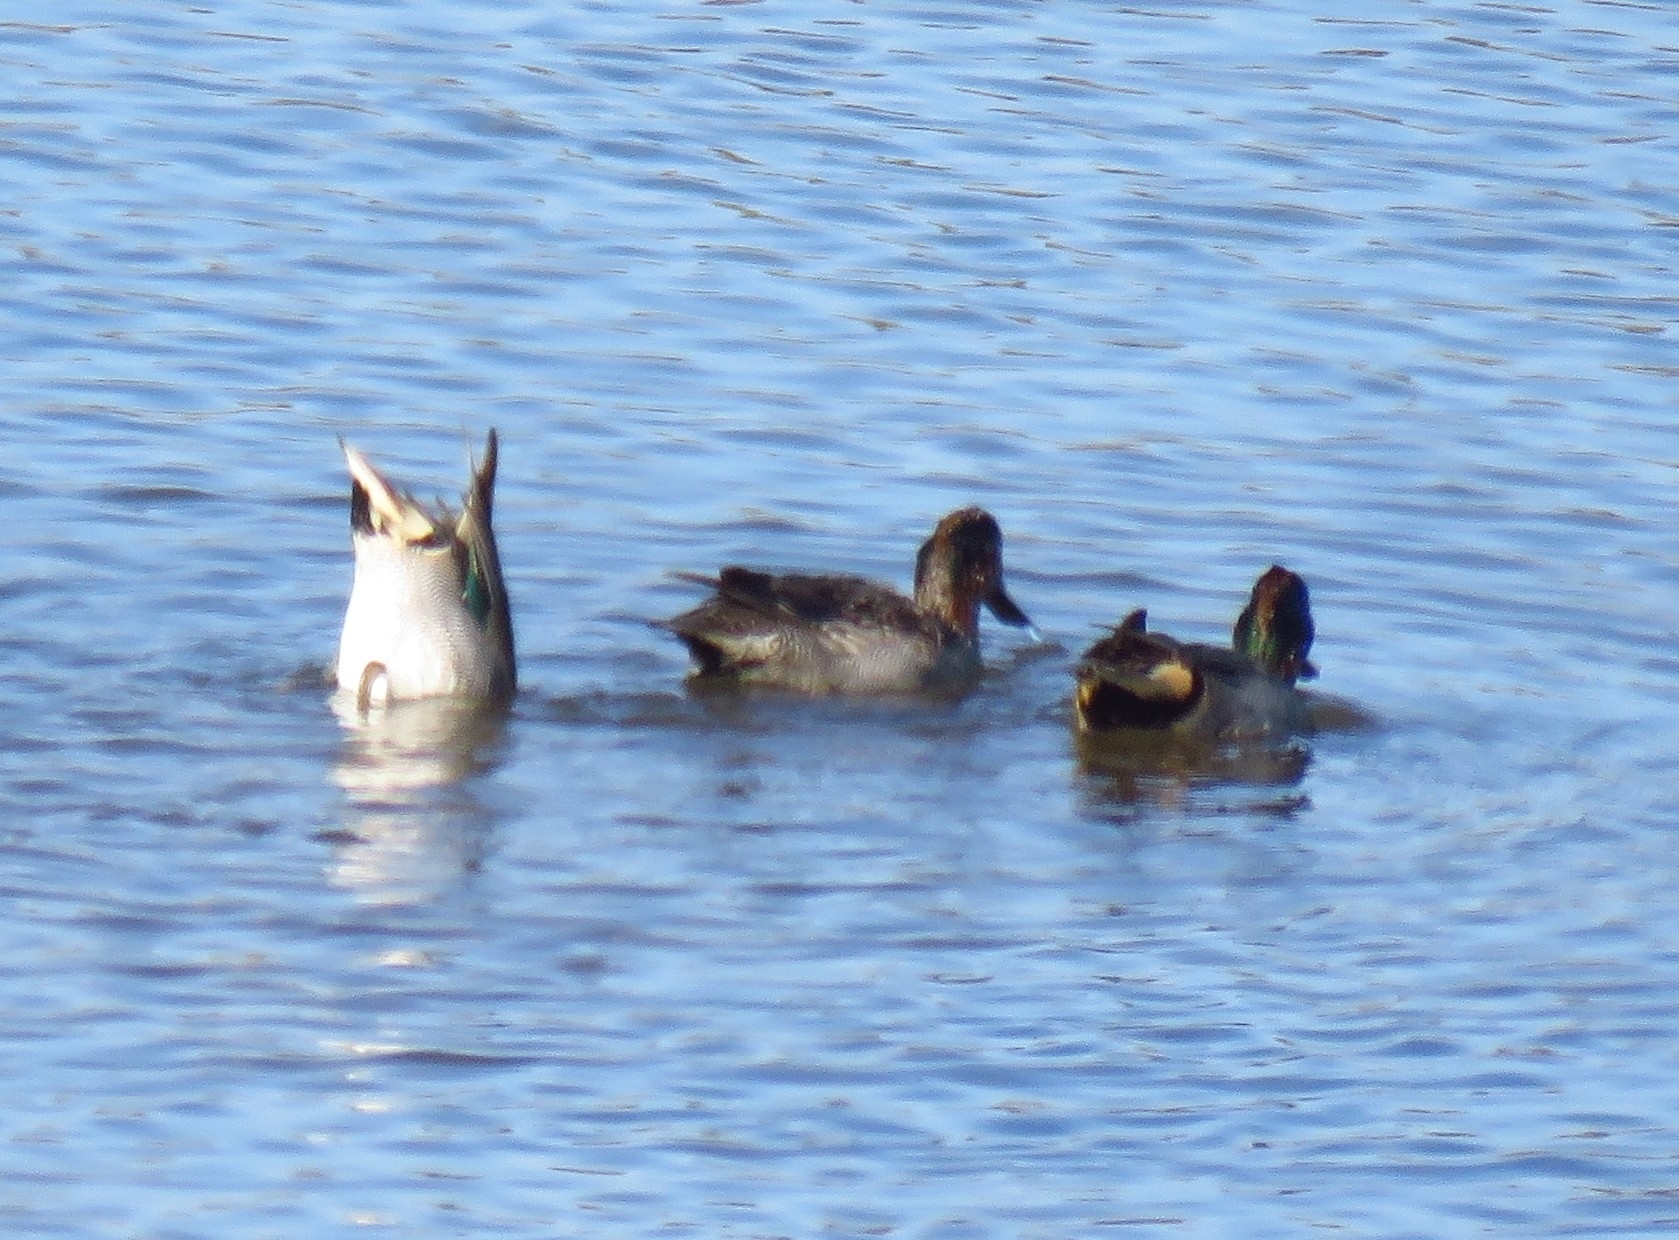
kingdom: Animalia
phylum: Chordata
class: Aves
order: Anseriformes
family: Anatidae
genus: Anas
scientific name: Anas crecca
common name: Eurasian teal
